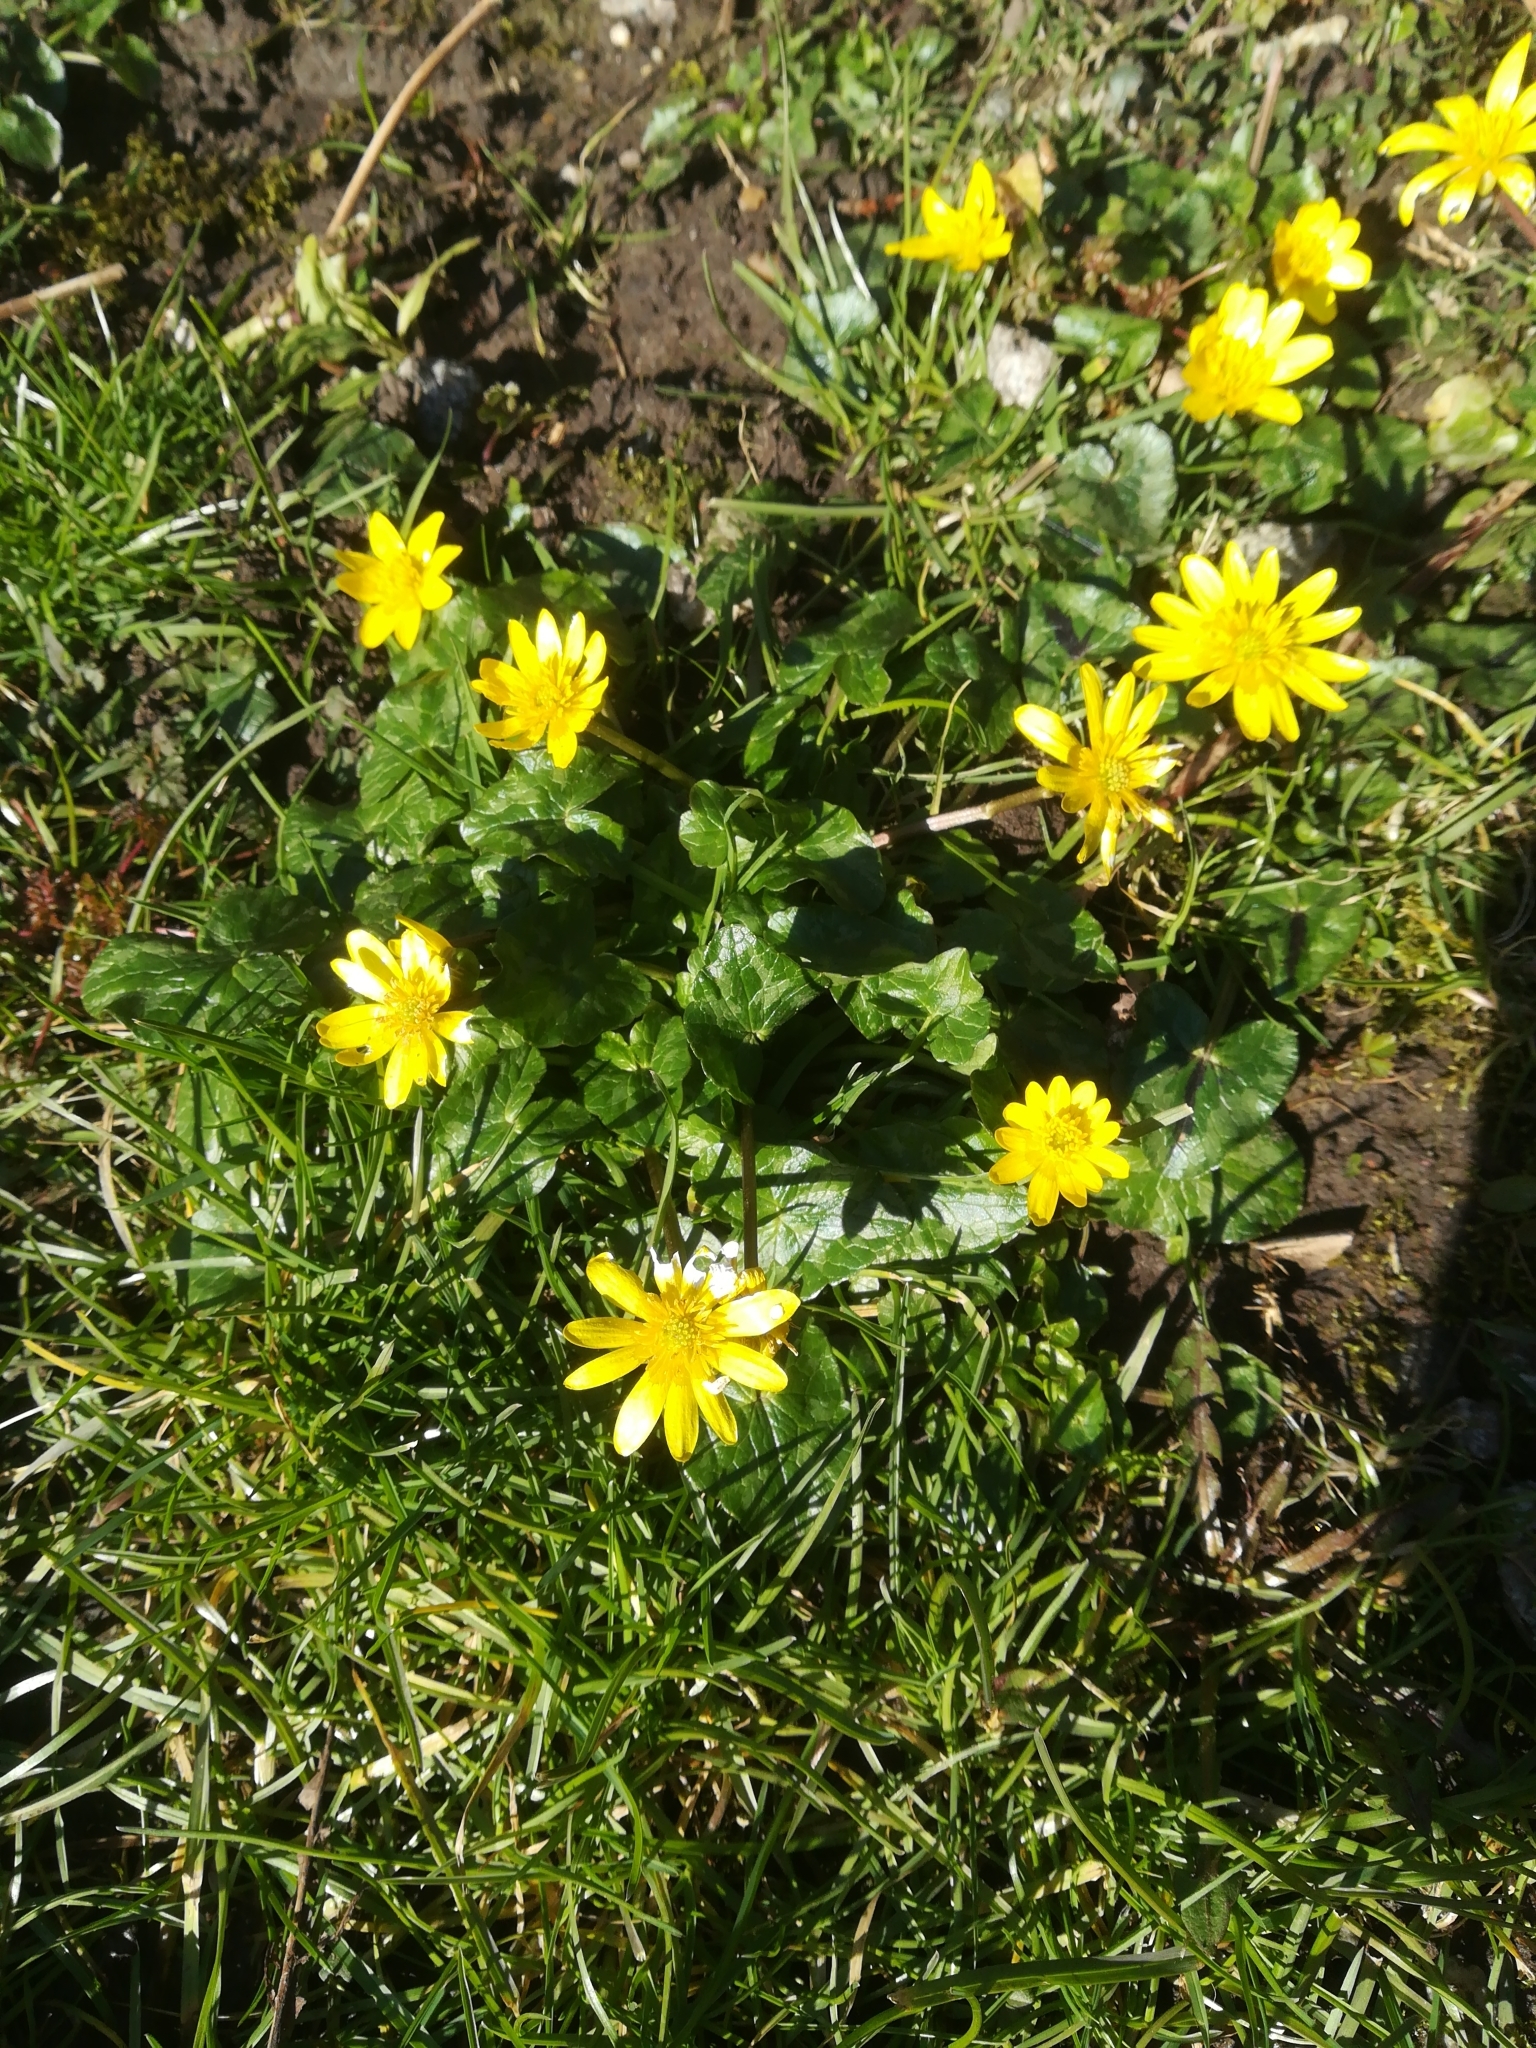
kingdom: Plantae
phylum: Tracheophyta
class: Magnoliopsida
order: Ranunculales
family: Ranunculaceae
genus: Ficaria
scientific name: Ficaria verna
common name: Lesser celandine
